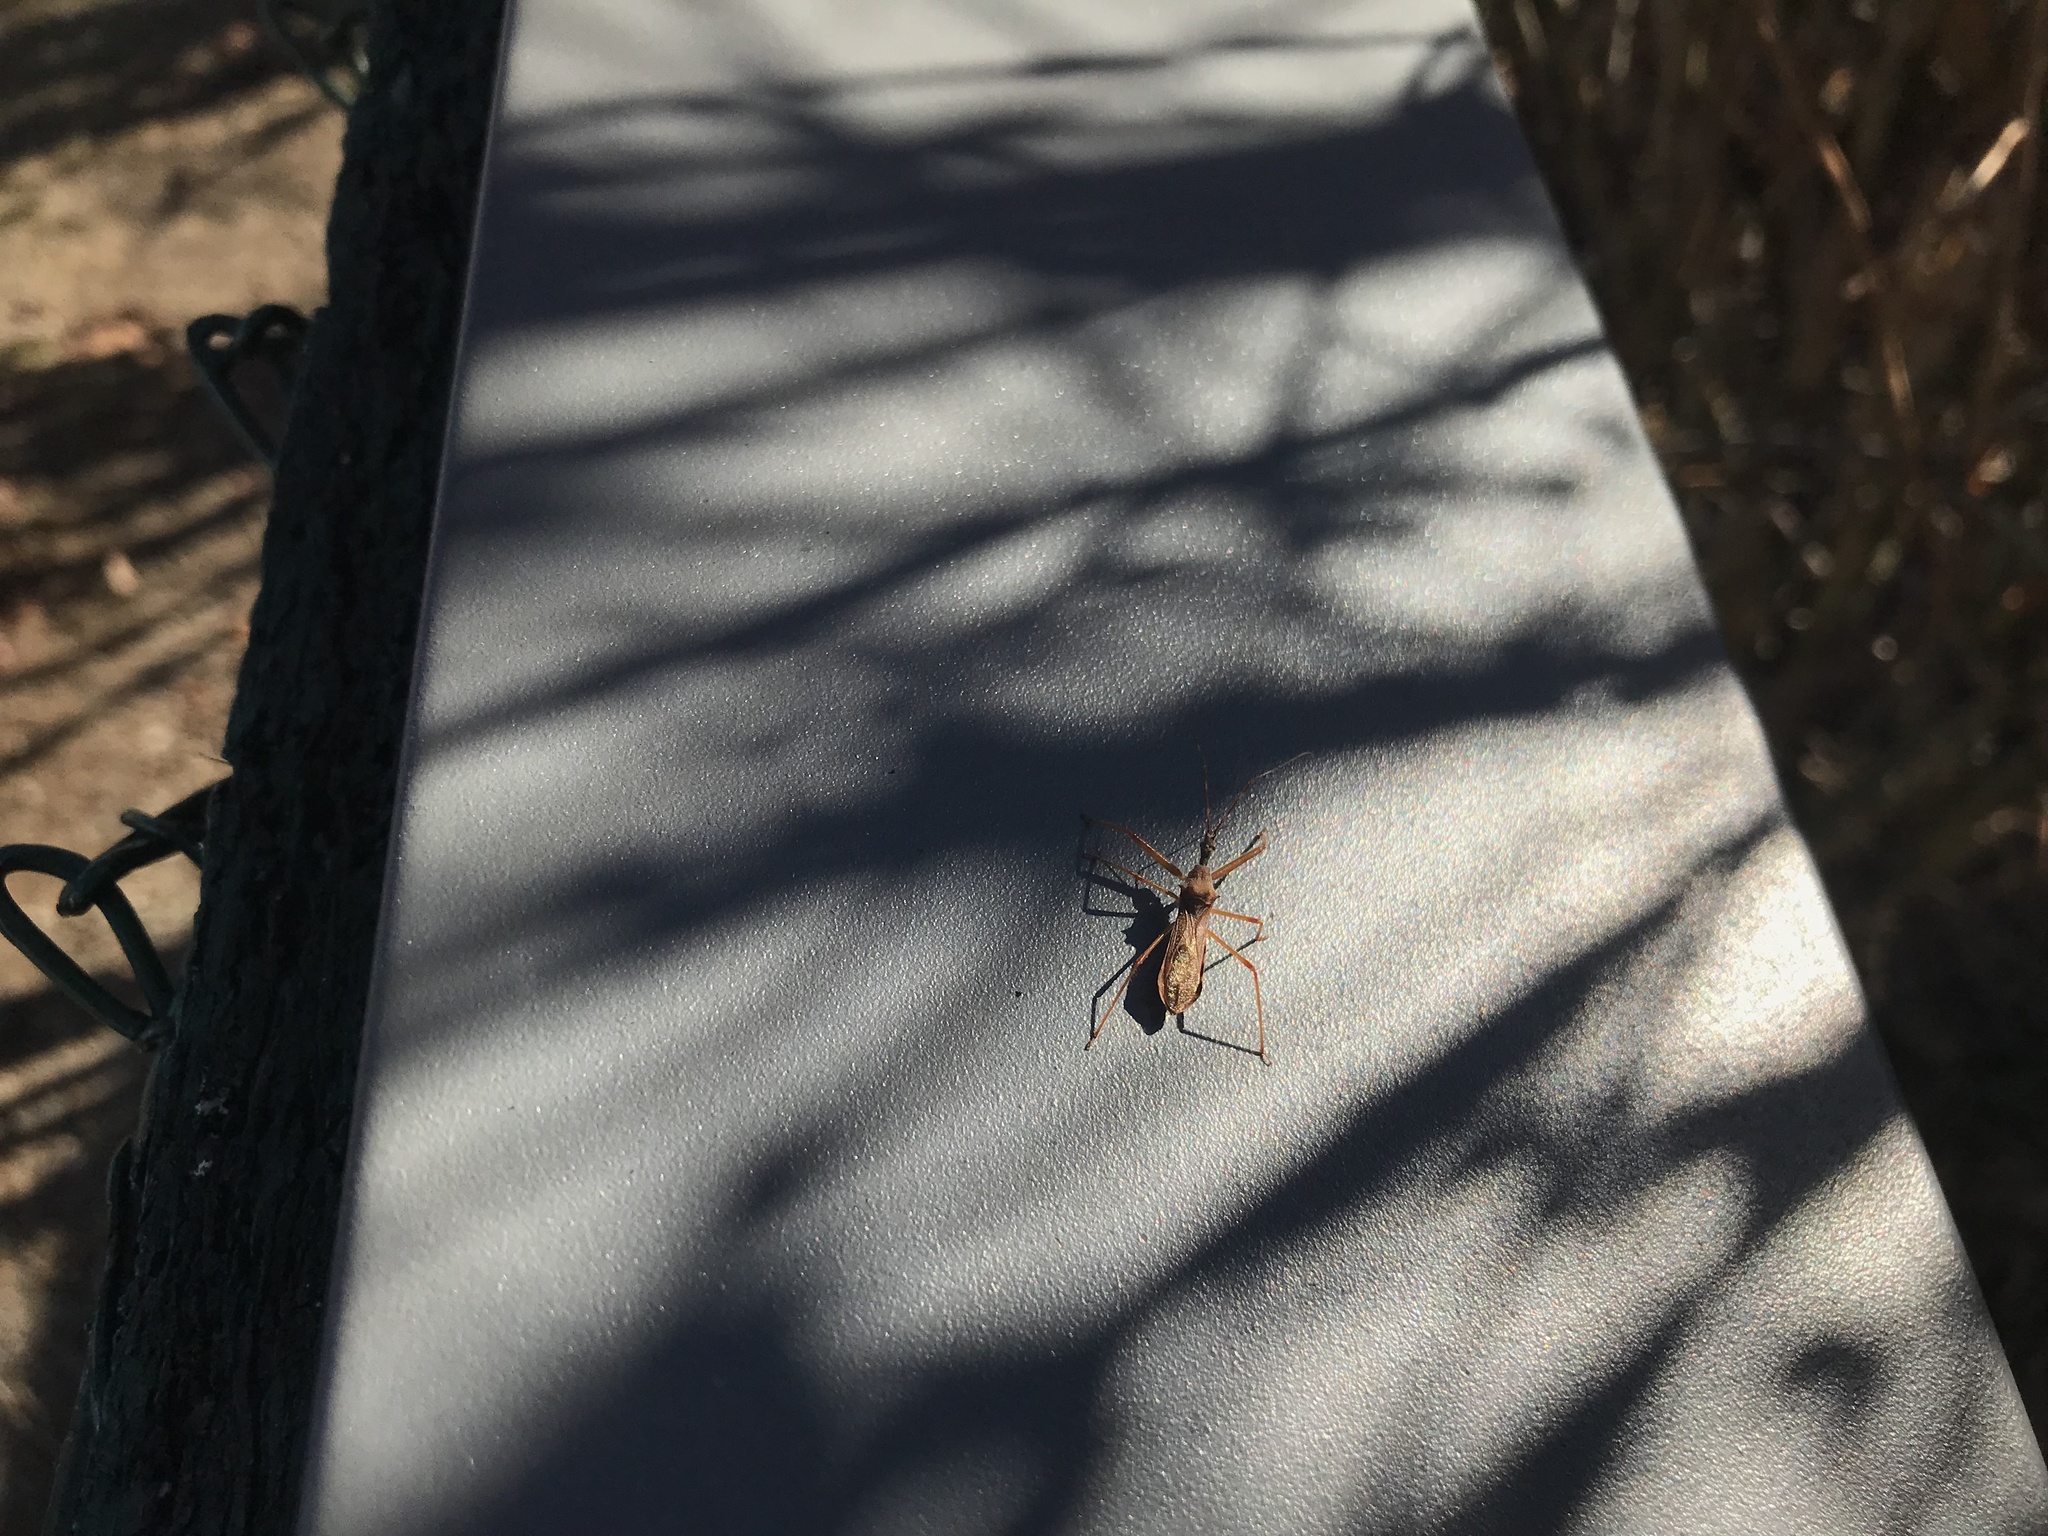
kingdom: Animalia
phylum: Arthropoda
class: Insecta
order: Hemiptera
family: Reduviidae
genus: Nagusta
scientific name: Nagusta goedelii
